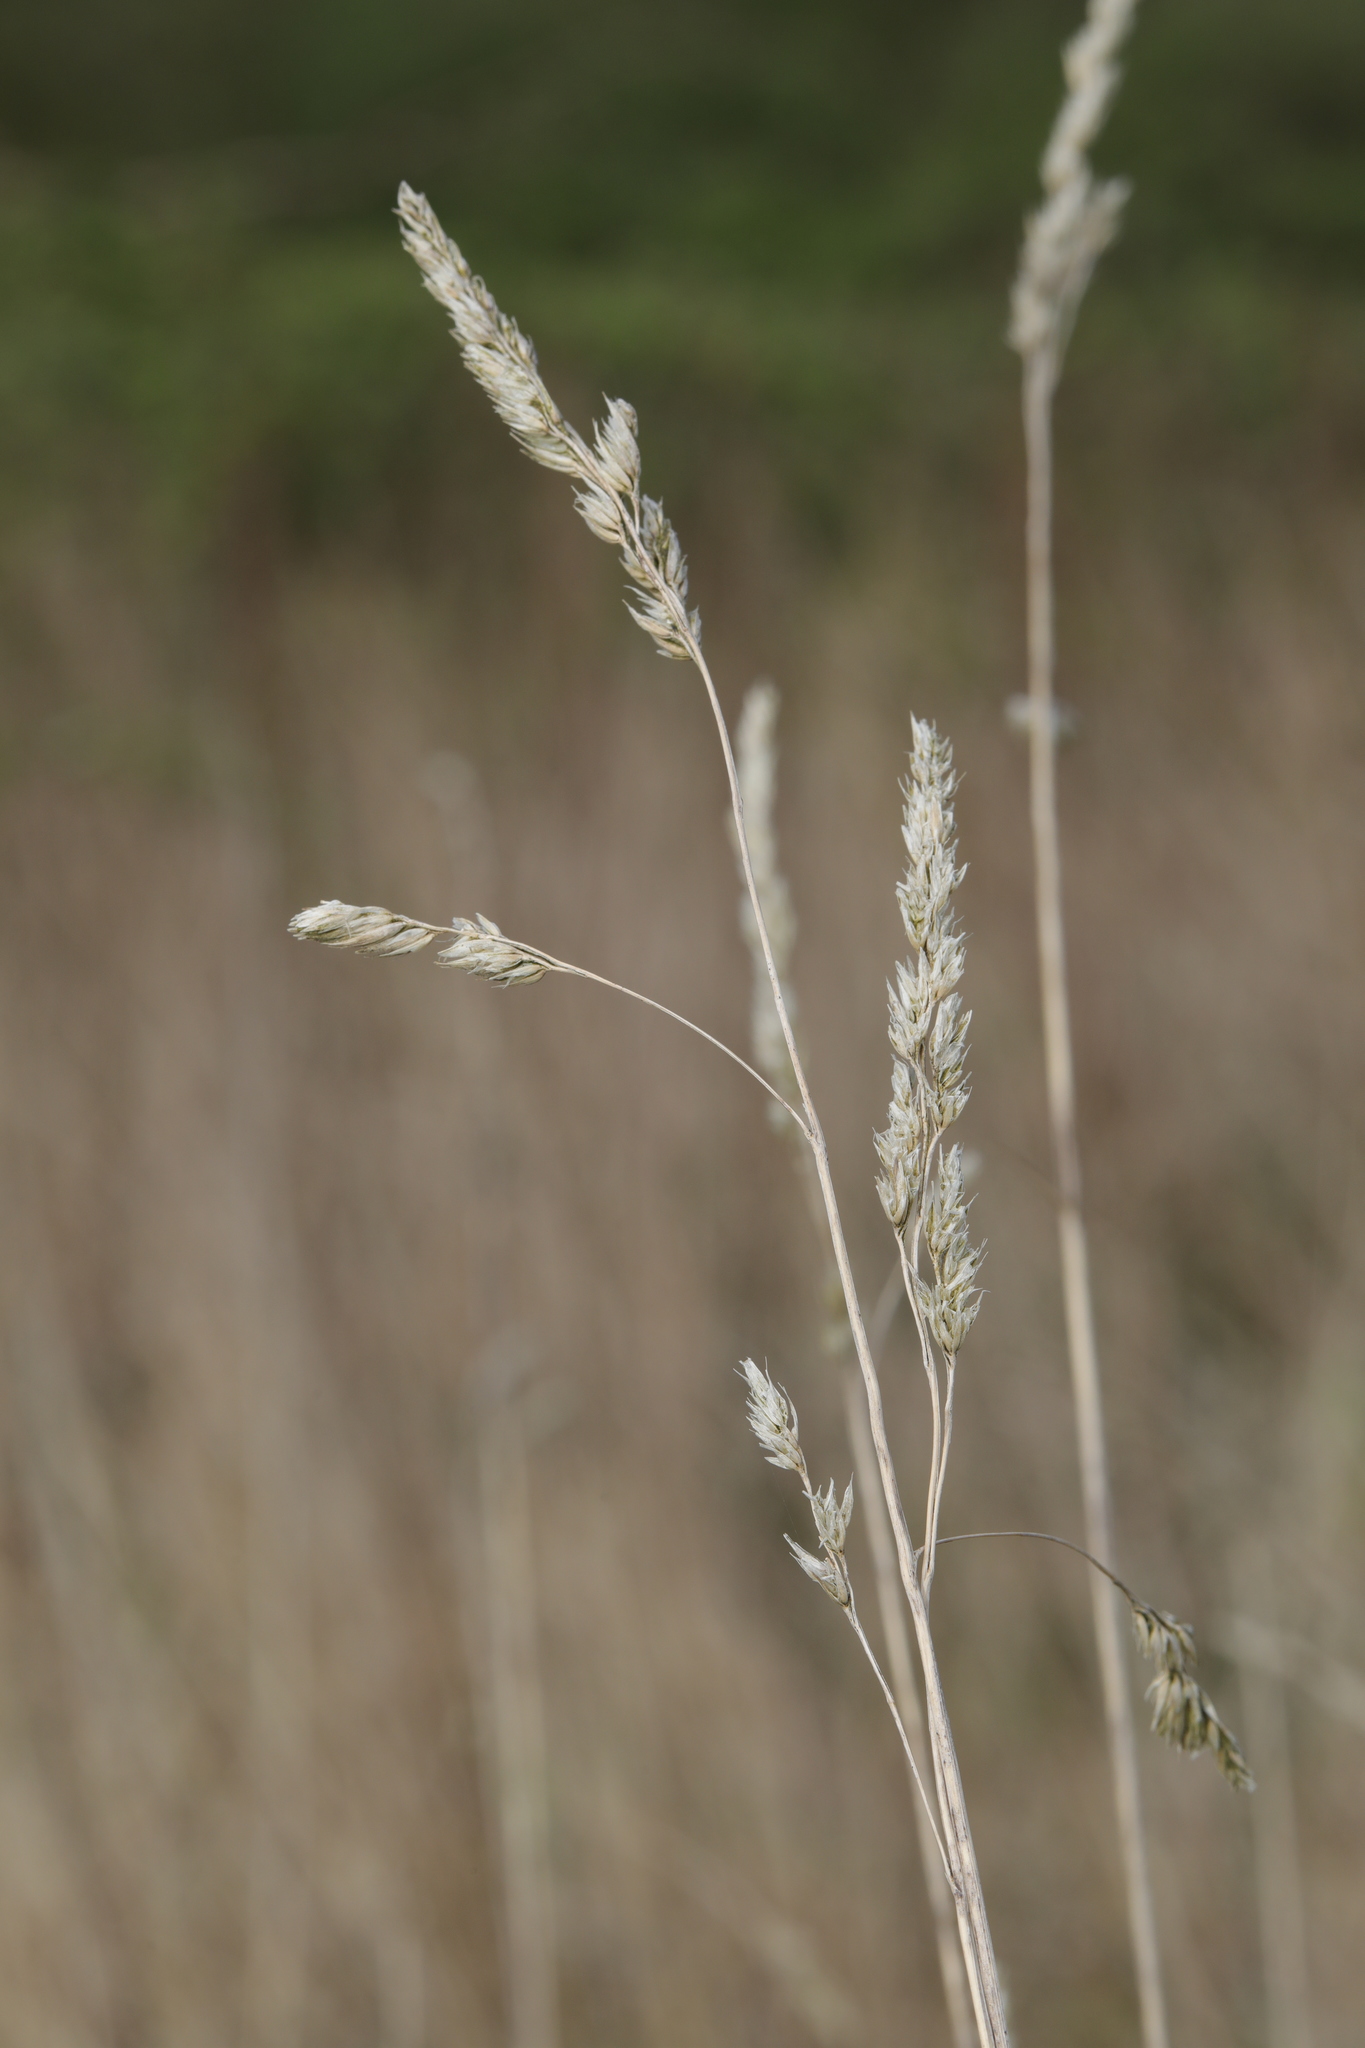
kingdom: Plantae
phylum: Tracheophyta
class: Liliopsida
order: Poales
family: Poaceae
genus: Dactylis
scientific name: Dactylis glomerata
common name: Orchardgrass
